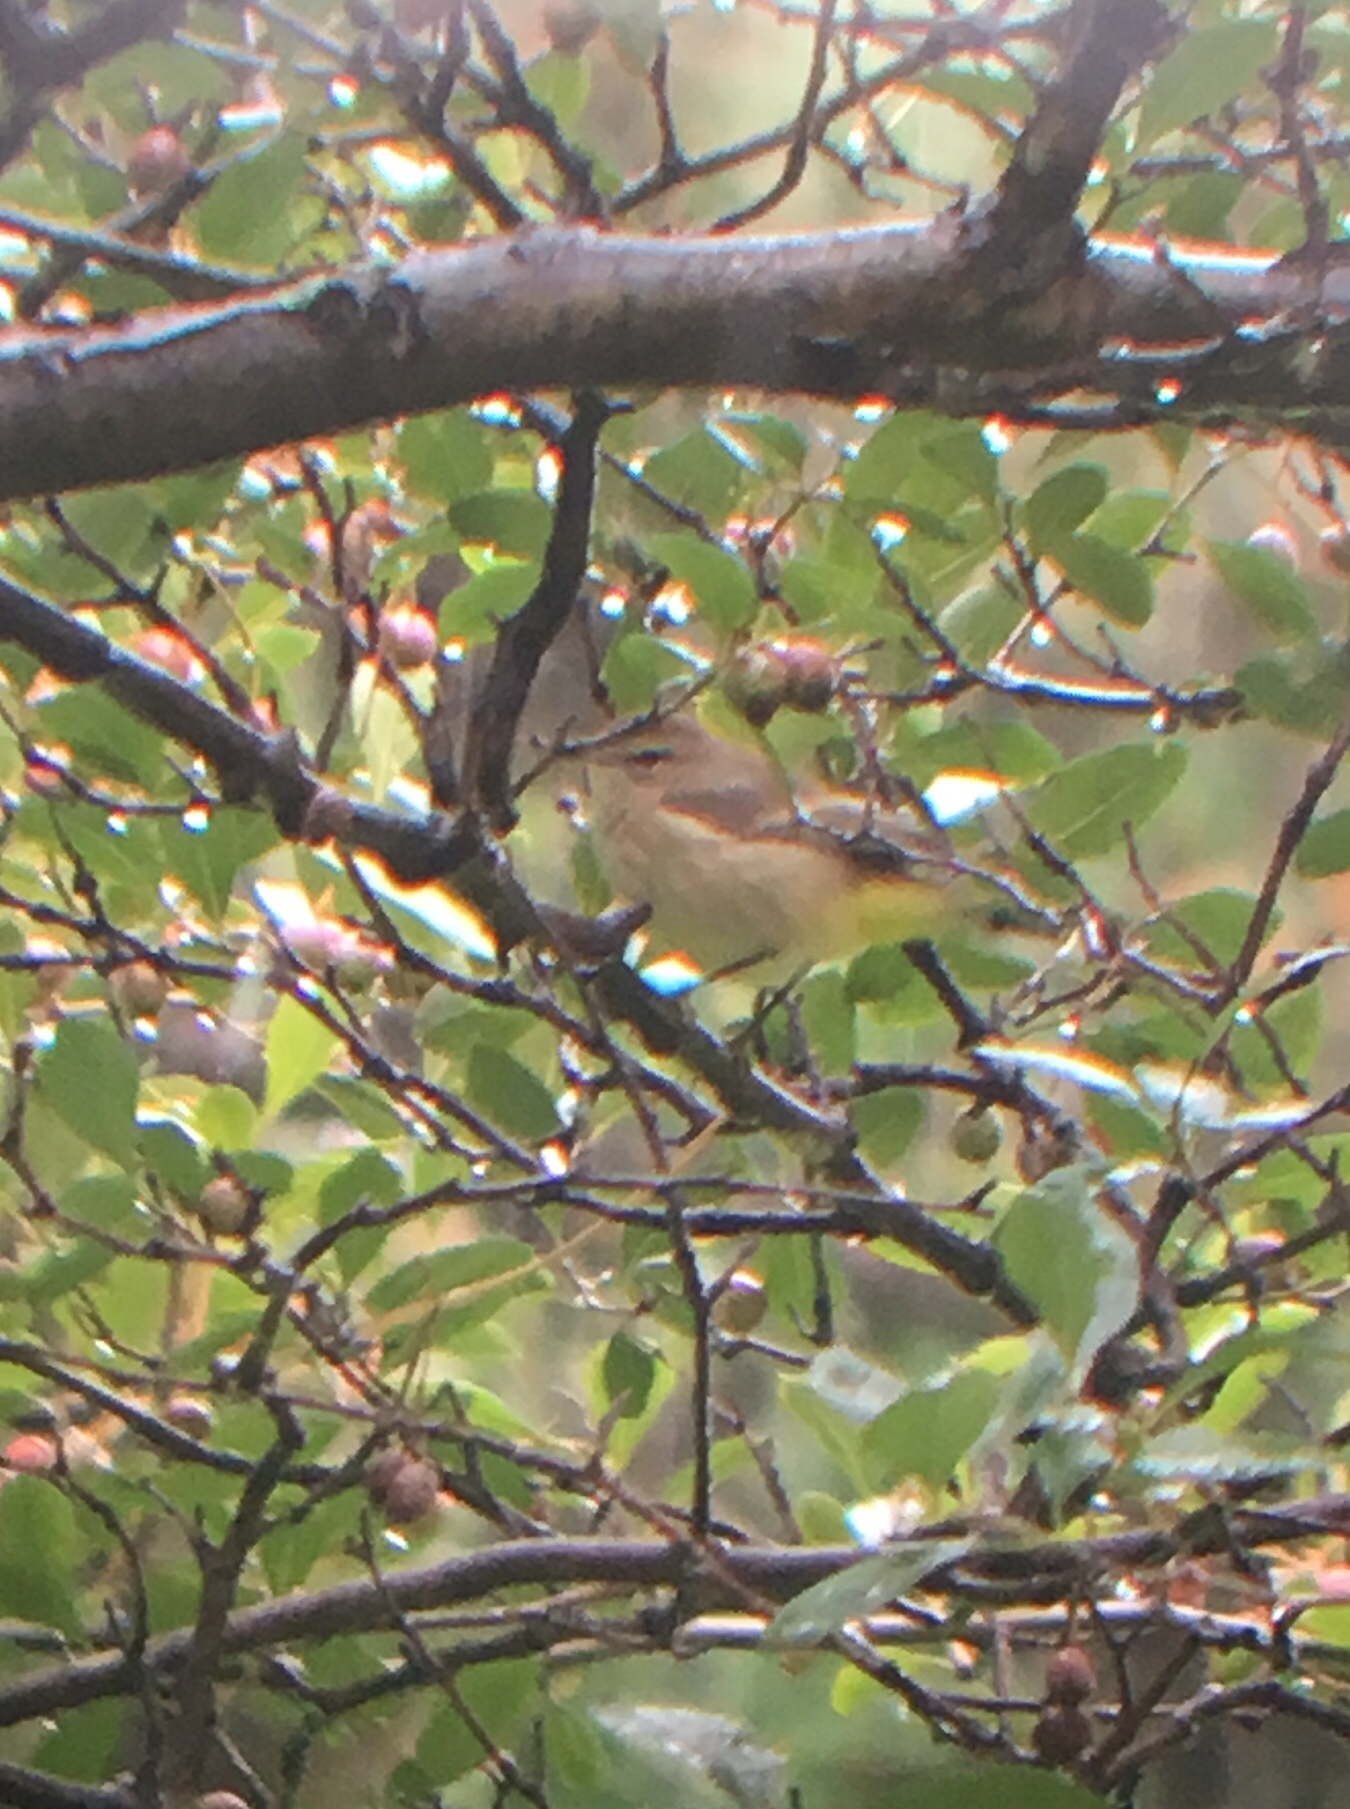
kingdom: Animalia
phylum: Chordata
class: Aves
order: Passeriformes
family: Parulidae
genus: Setophaga
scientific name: Setophaga palmarum
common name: Palm warbler
